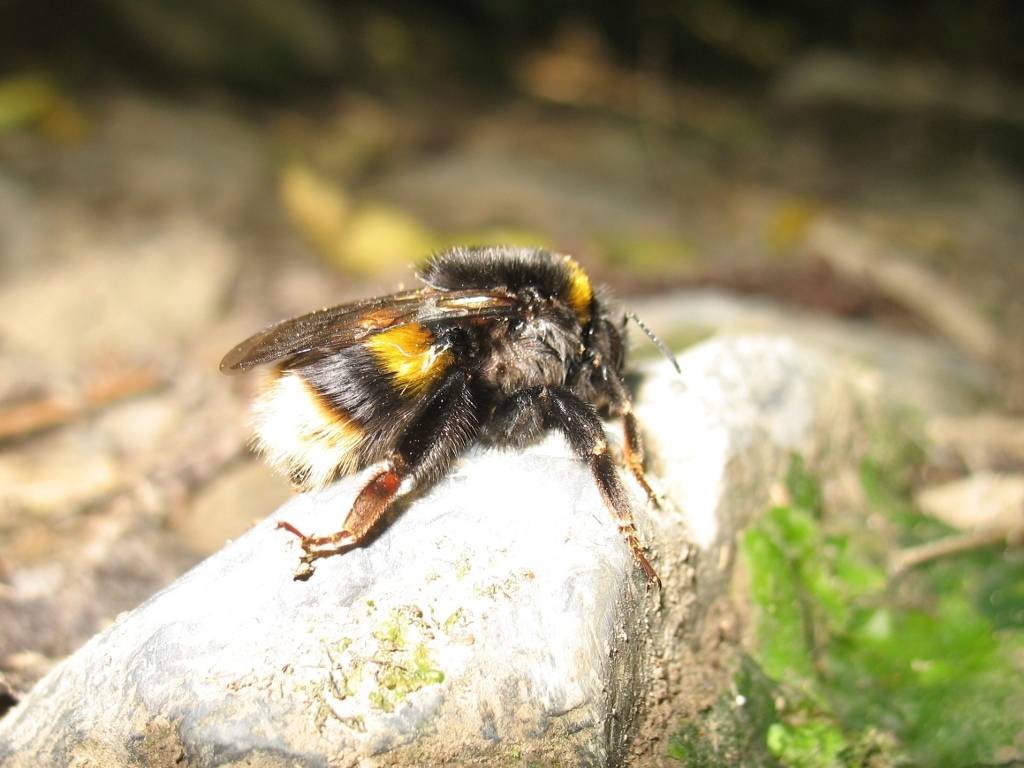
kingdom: Animalia
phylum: Arthropoda
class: Insecta
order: Hymenoptera
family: Apidae
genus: Bombus
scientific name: Bombus terrestris
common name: Buff-tailed bumblebee
